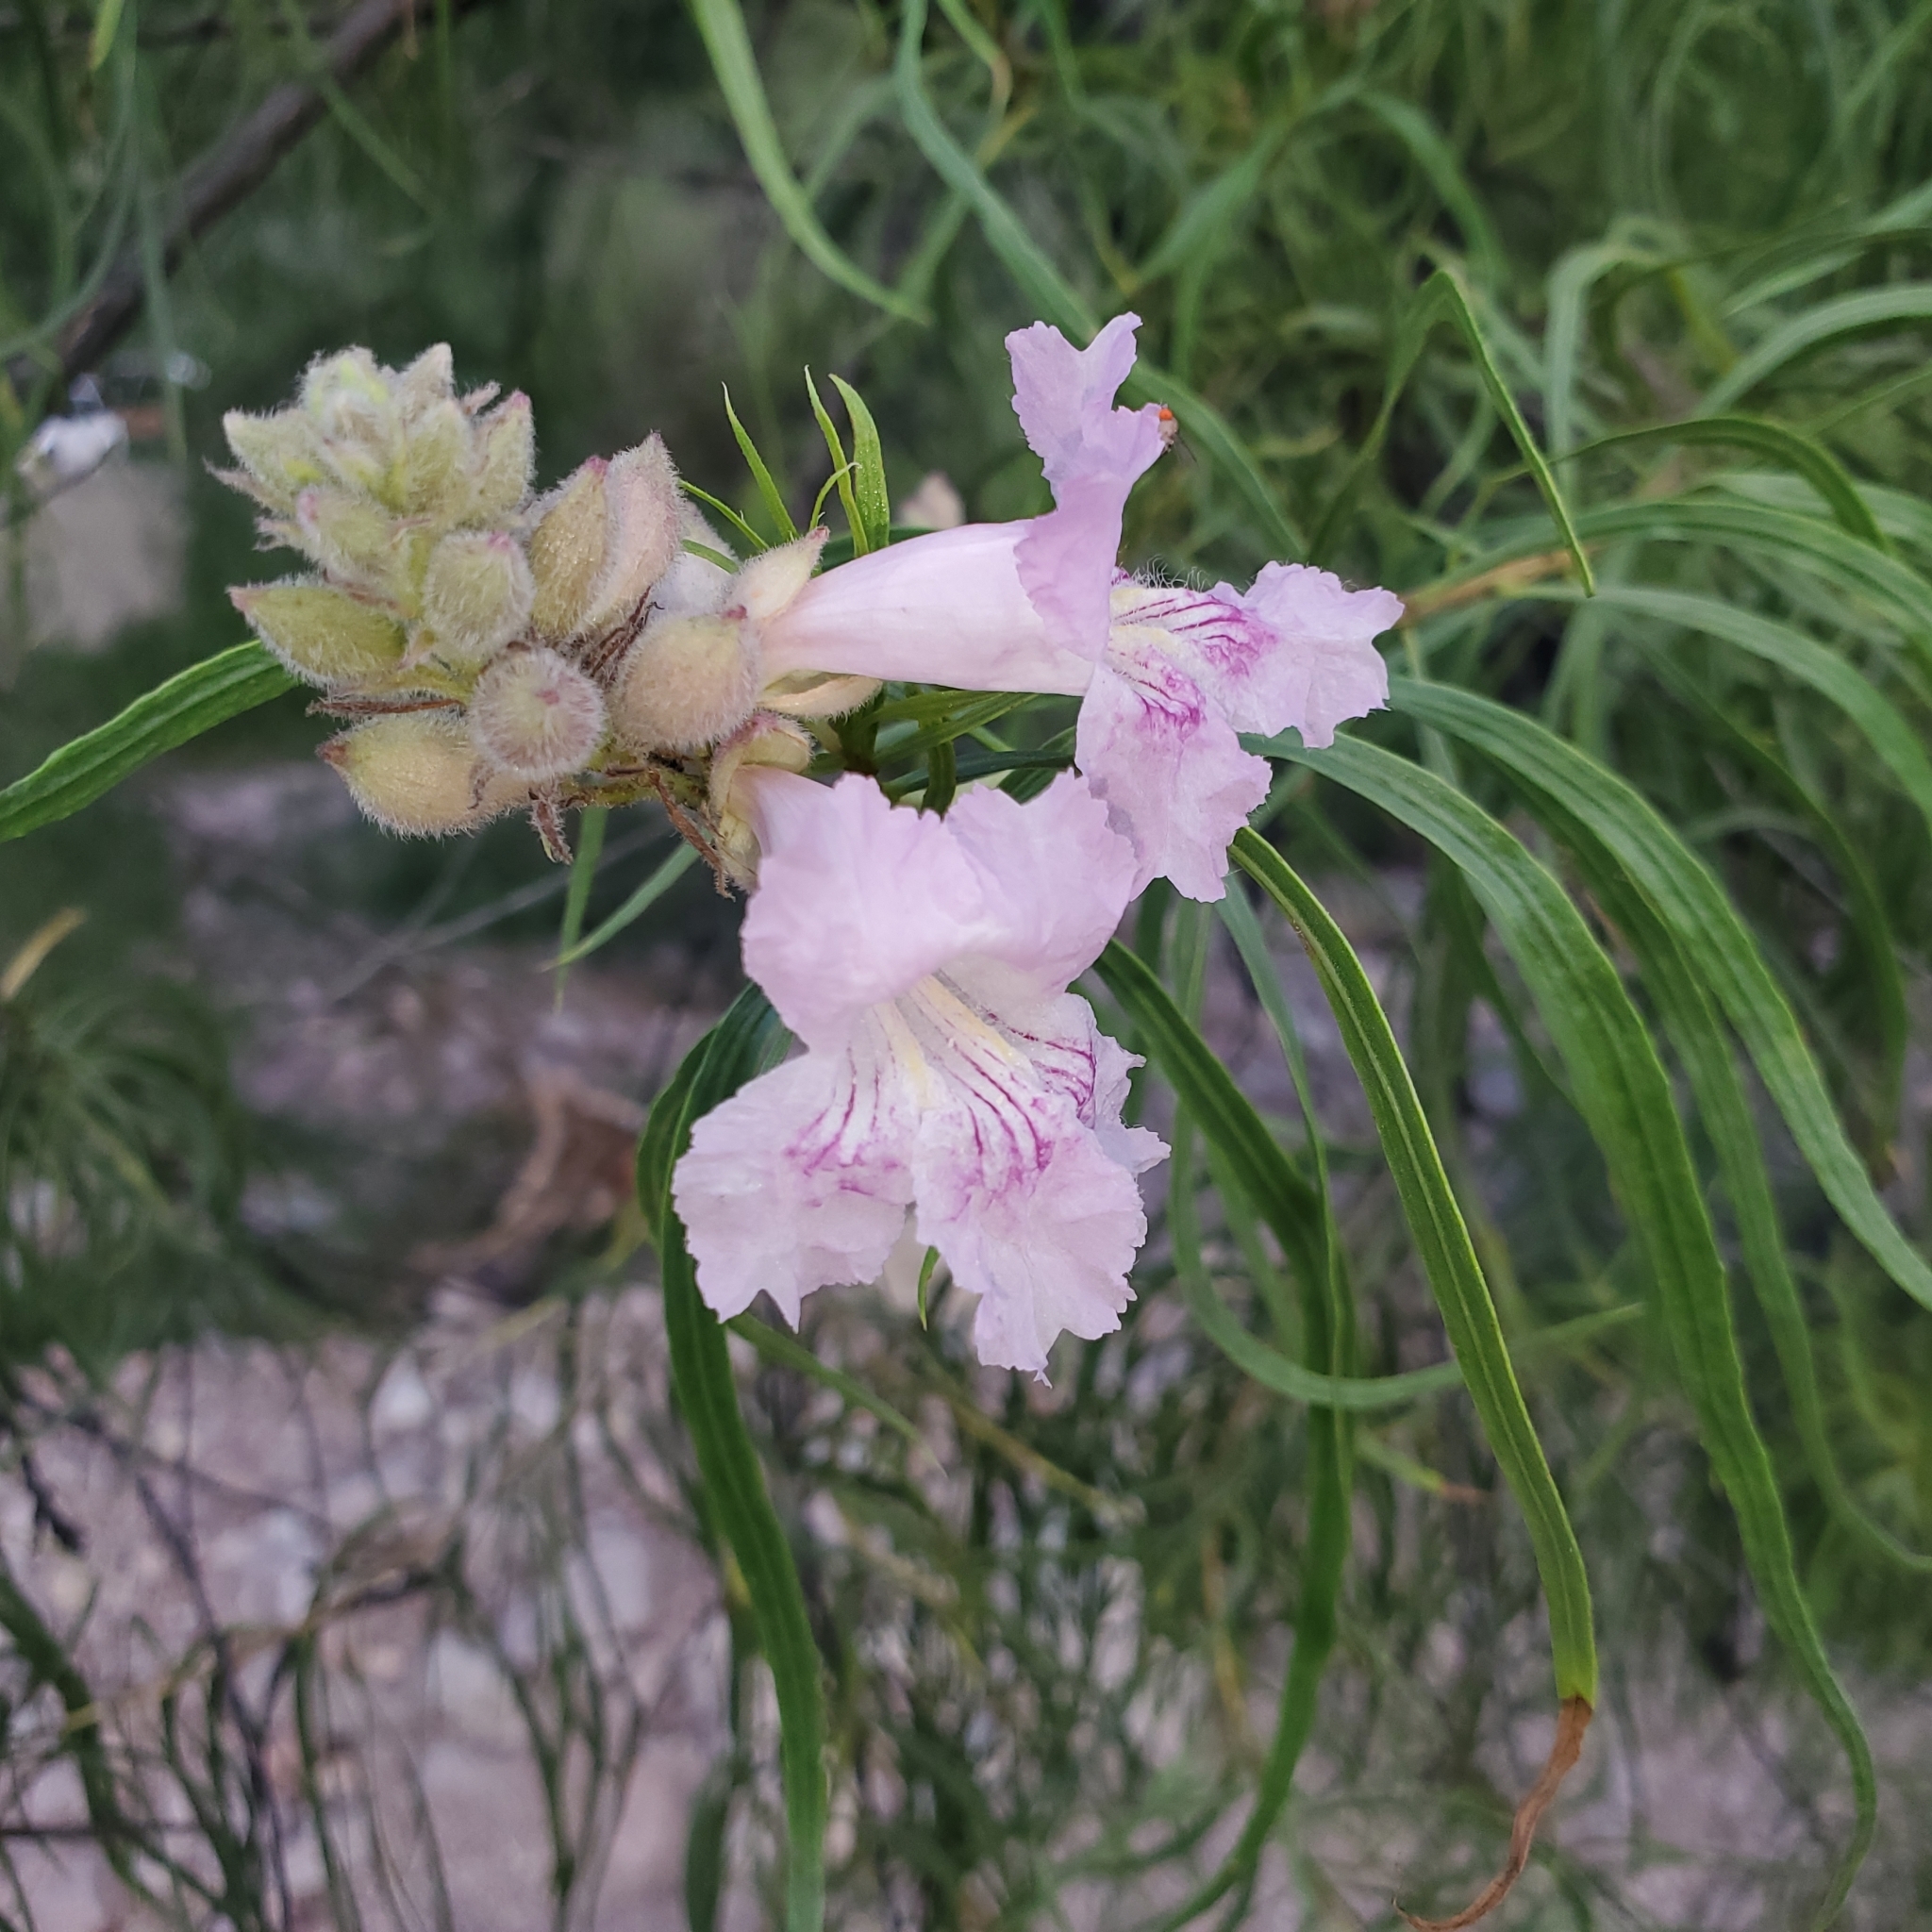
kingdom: Plantae
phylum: Tracheophyta
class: Magnoliopsida
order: Lamiales
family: Bignoniaceae
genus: Chilopsis
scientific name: Chilopsis linearis
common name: Desert-willow
